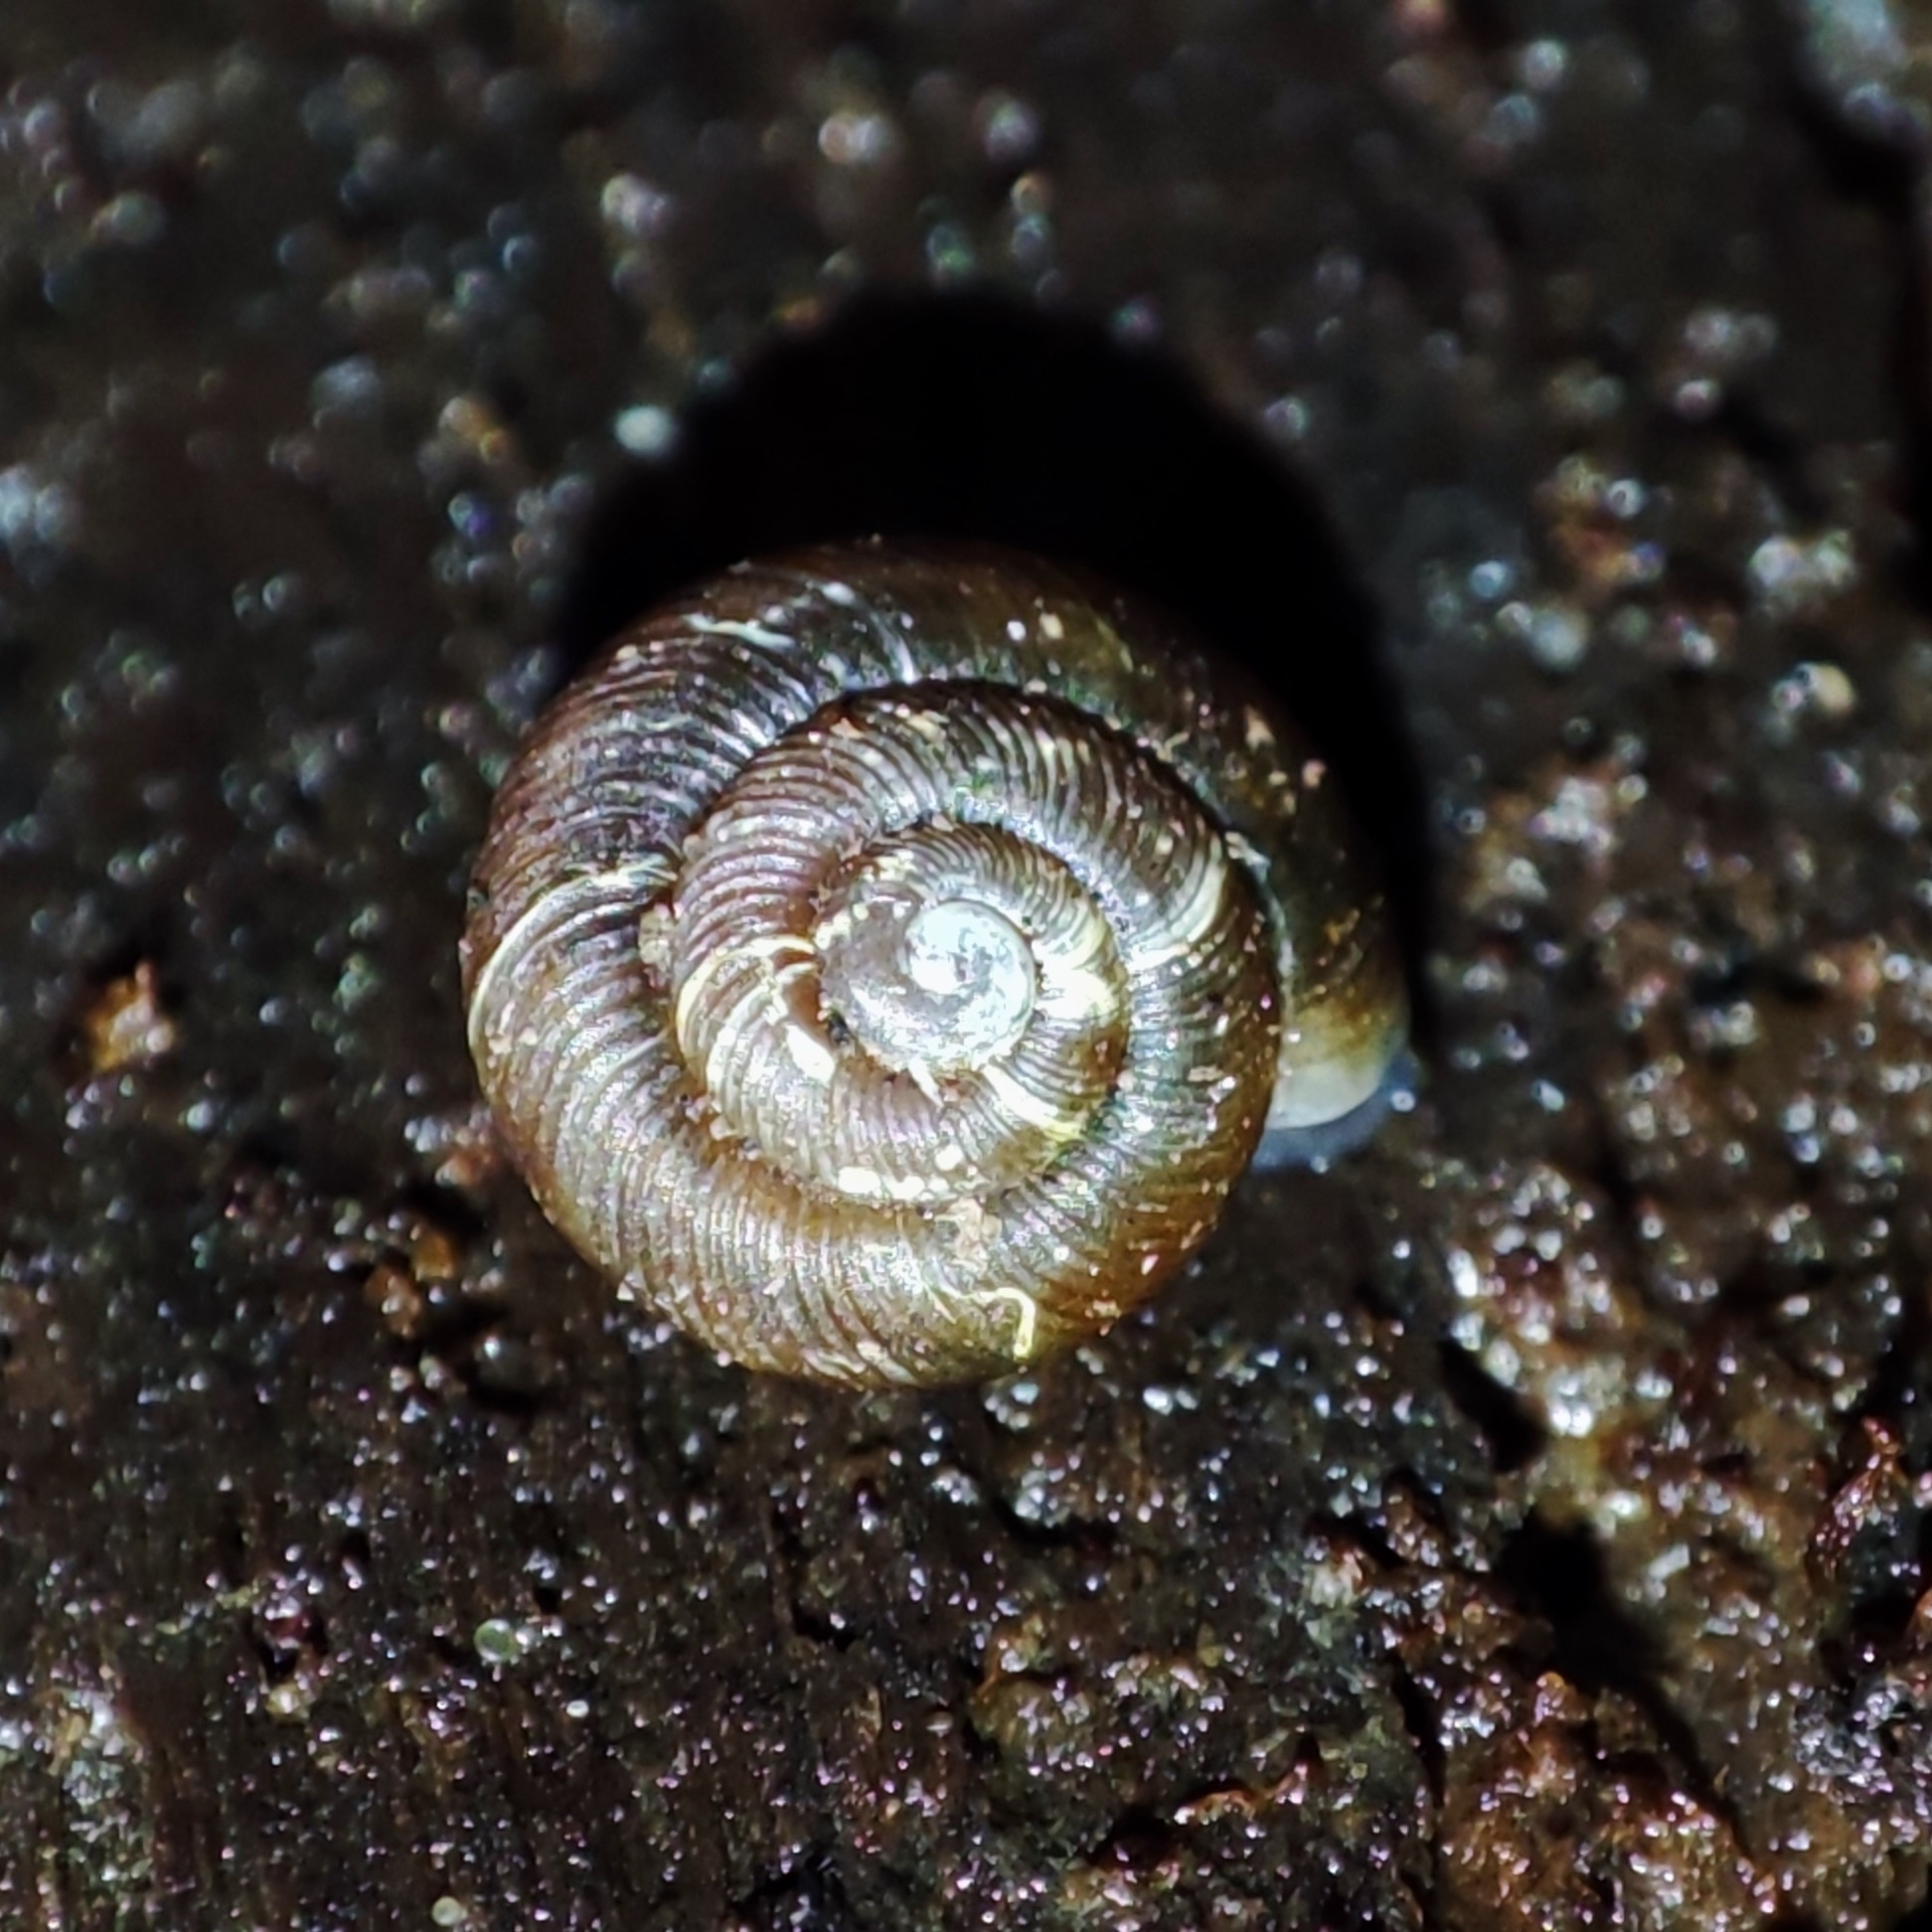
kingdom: Animalia
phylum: Mollusca
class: Gastropoda
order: Stylommatophora
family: Discidae
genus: Discus
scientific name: Discus ruderatus
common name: Brown disc snail
